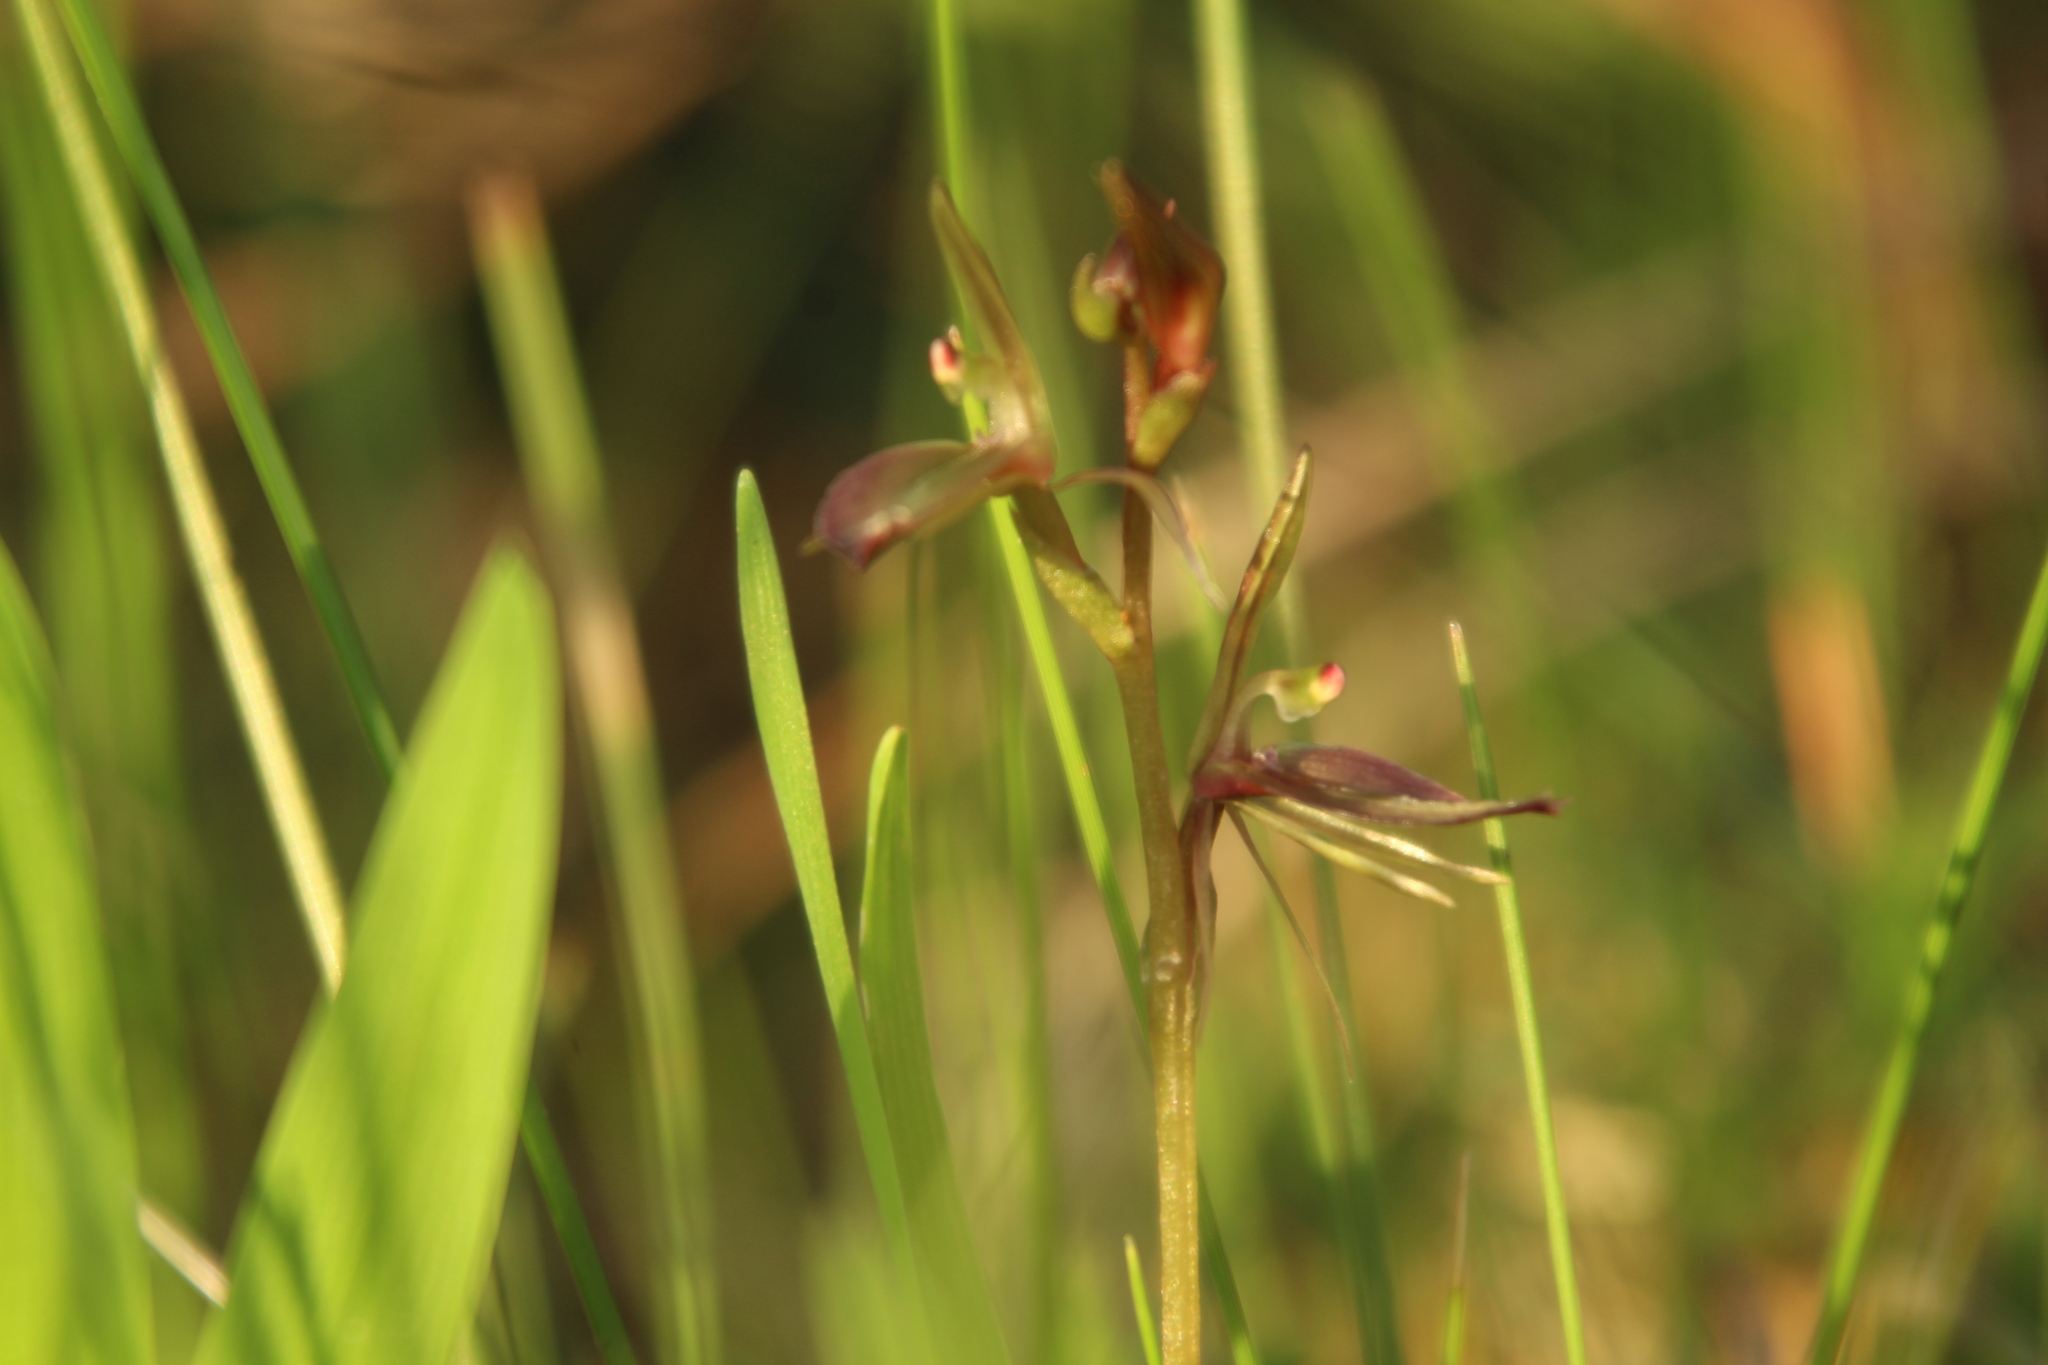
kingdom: Plantae
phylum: Tracheophyta
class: Liliopsida
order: Asparagales
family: Orchidaceae
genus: Cyrtostylis
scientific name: Cyrtostylis robusta
